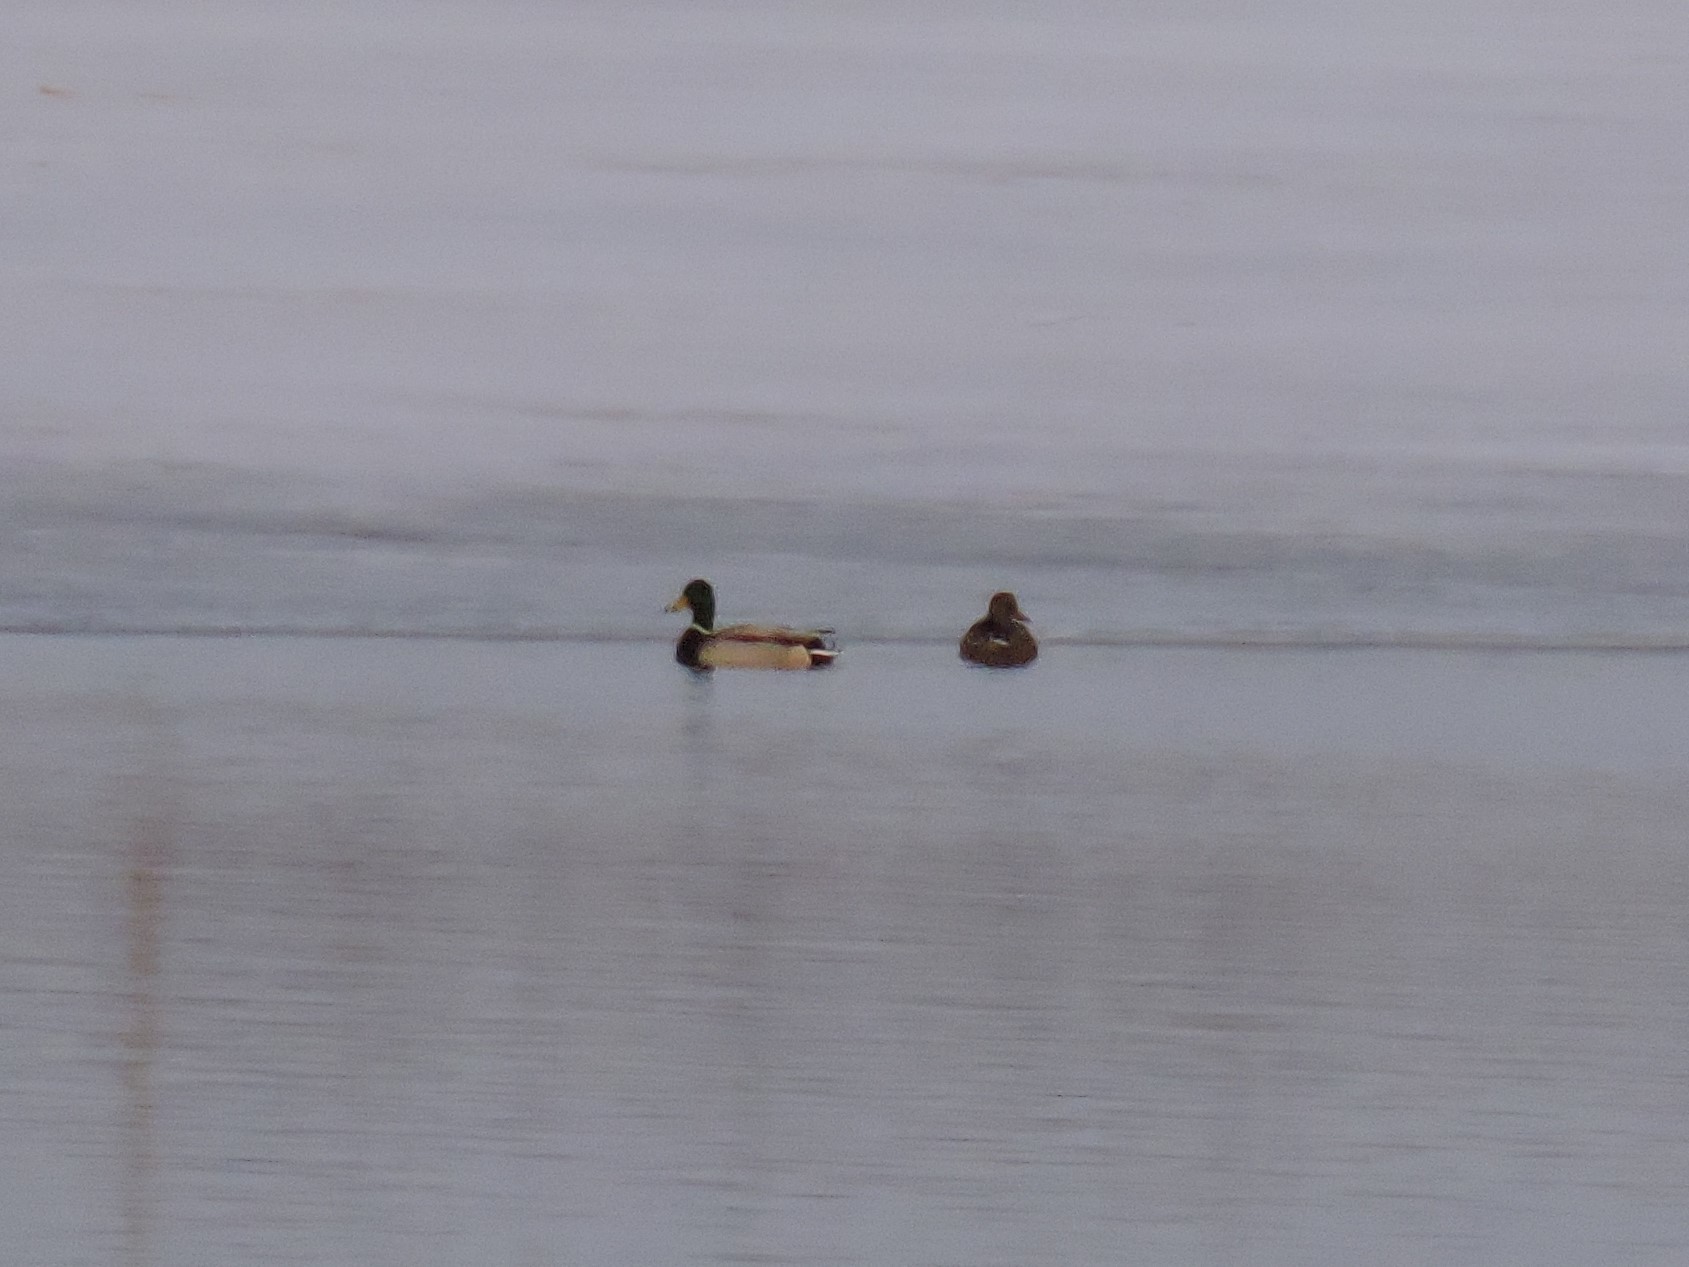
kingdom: Animalia
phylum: Chordata
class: Aves
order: Anseriformes
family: Anatidae
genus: Anas
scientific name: Anas platyrhynchos
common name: Mallard
